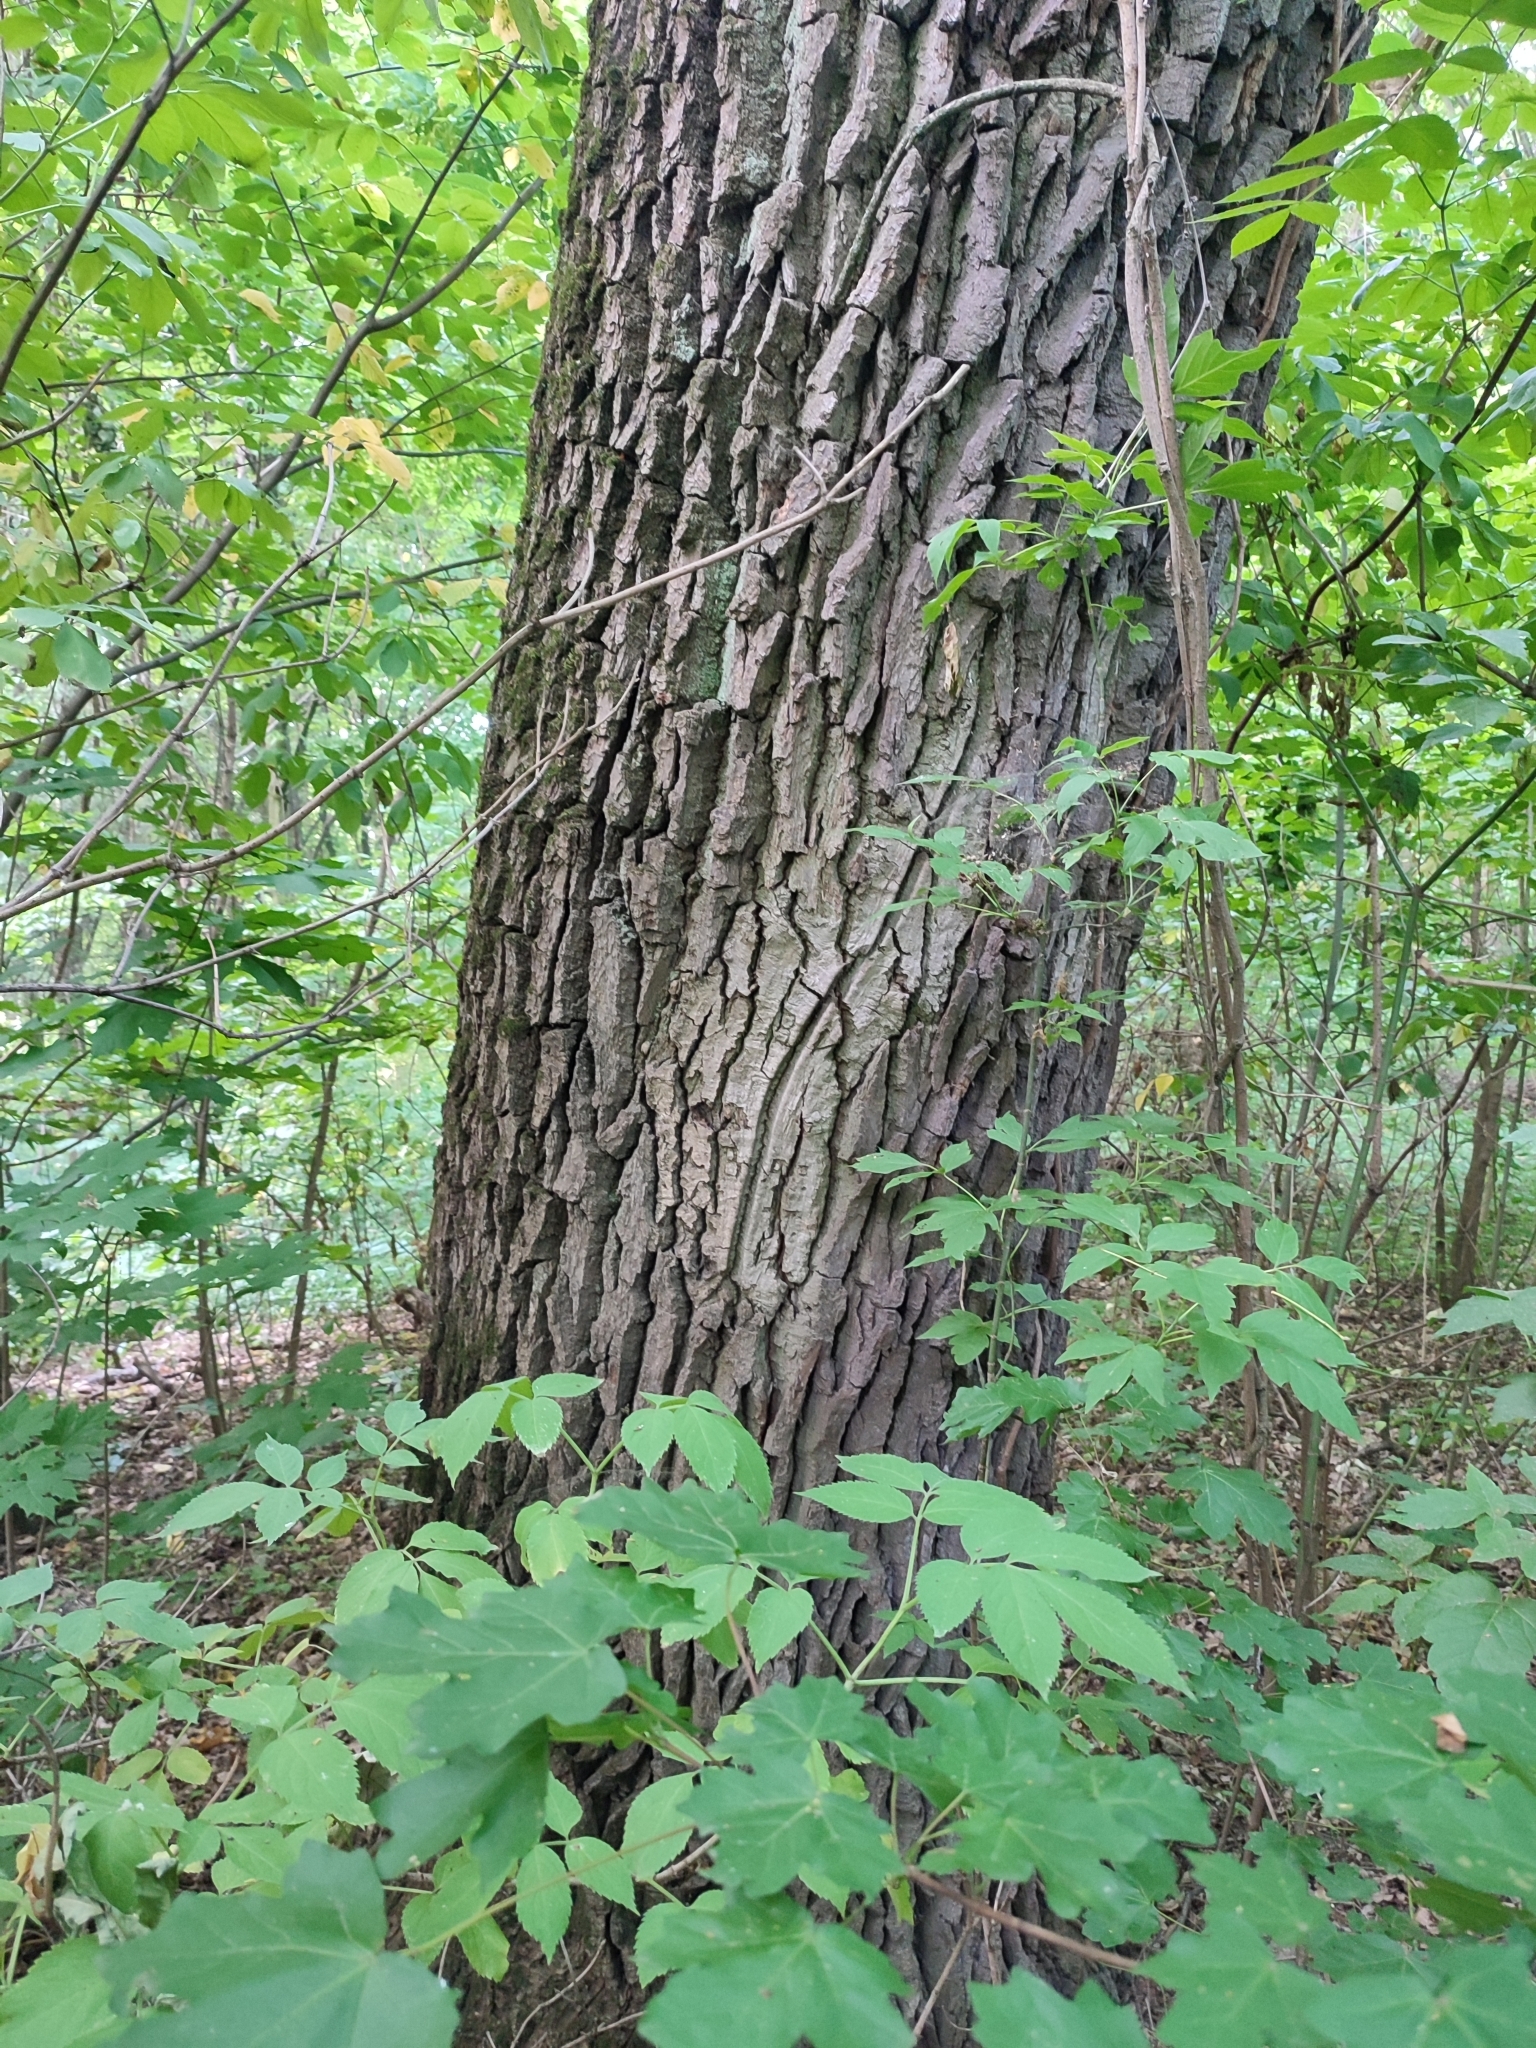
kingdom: Plantae
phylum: Tracheophyta
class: Magnoliopsida
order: Fagales
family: Fagaceae
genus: Quercus
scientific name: Quercus robur
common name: Pedunculate oak
